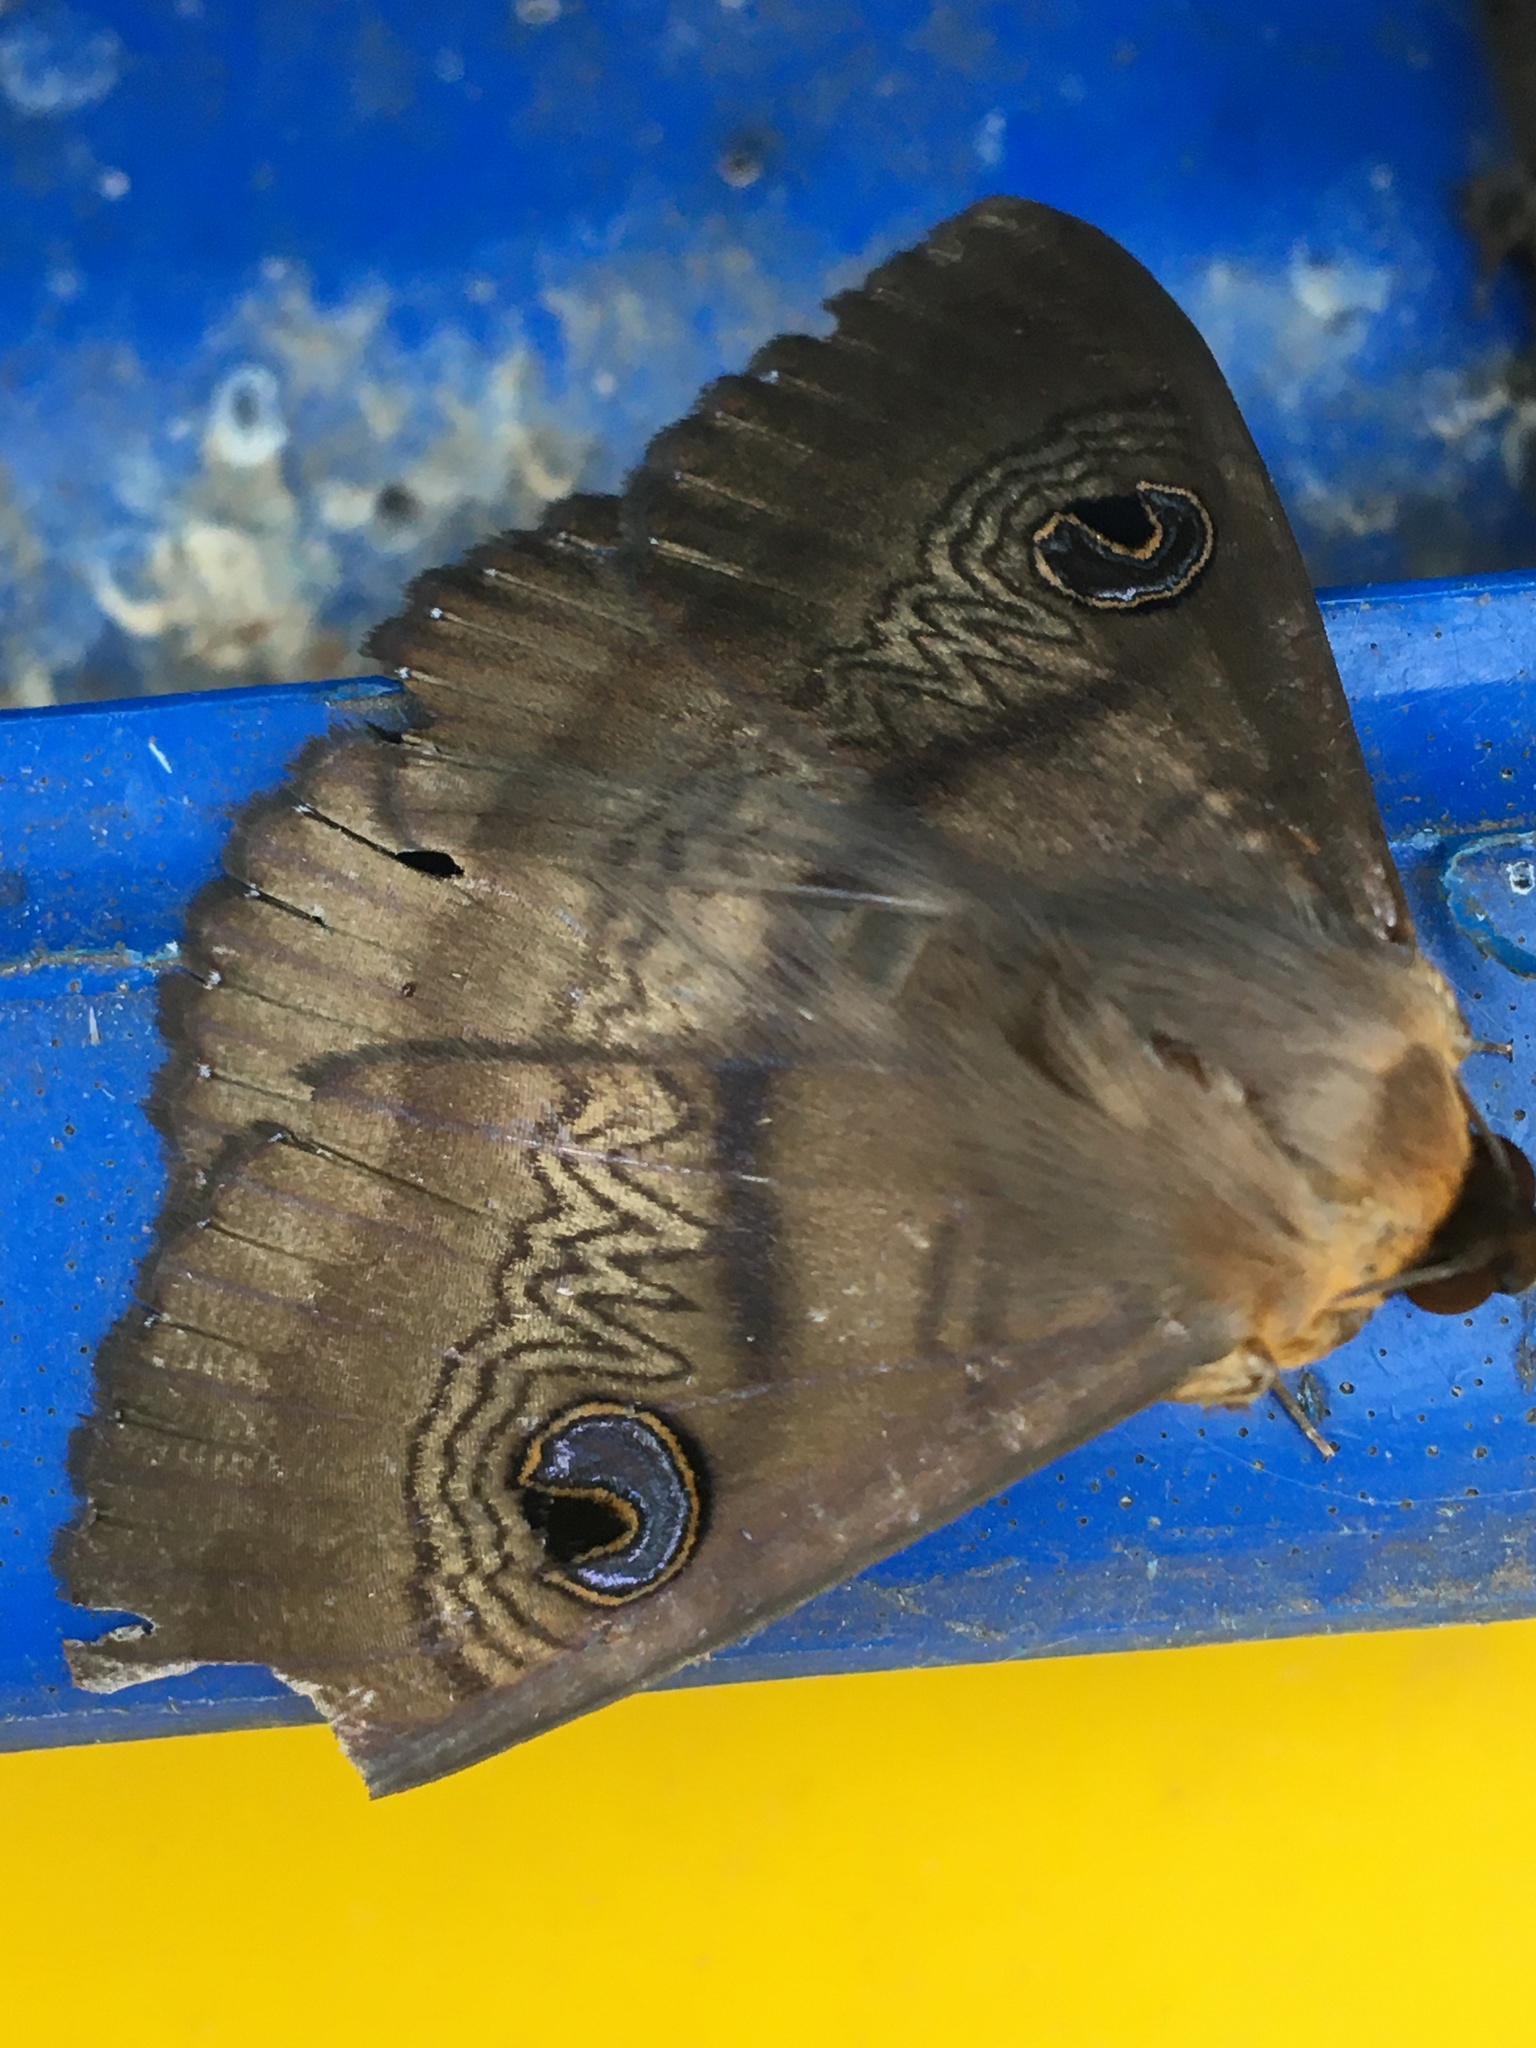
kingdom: Animalia
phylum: Arthropoda
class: Insecta
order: Lepidoptera
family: Erebidae
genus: Dasypodia
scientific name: Dasypodia selenophora
